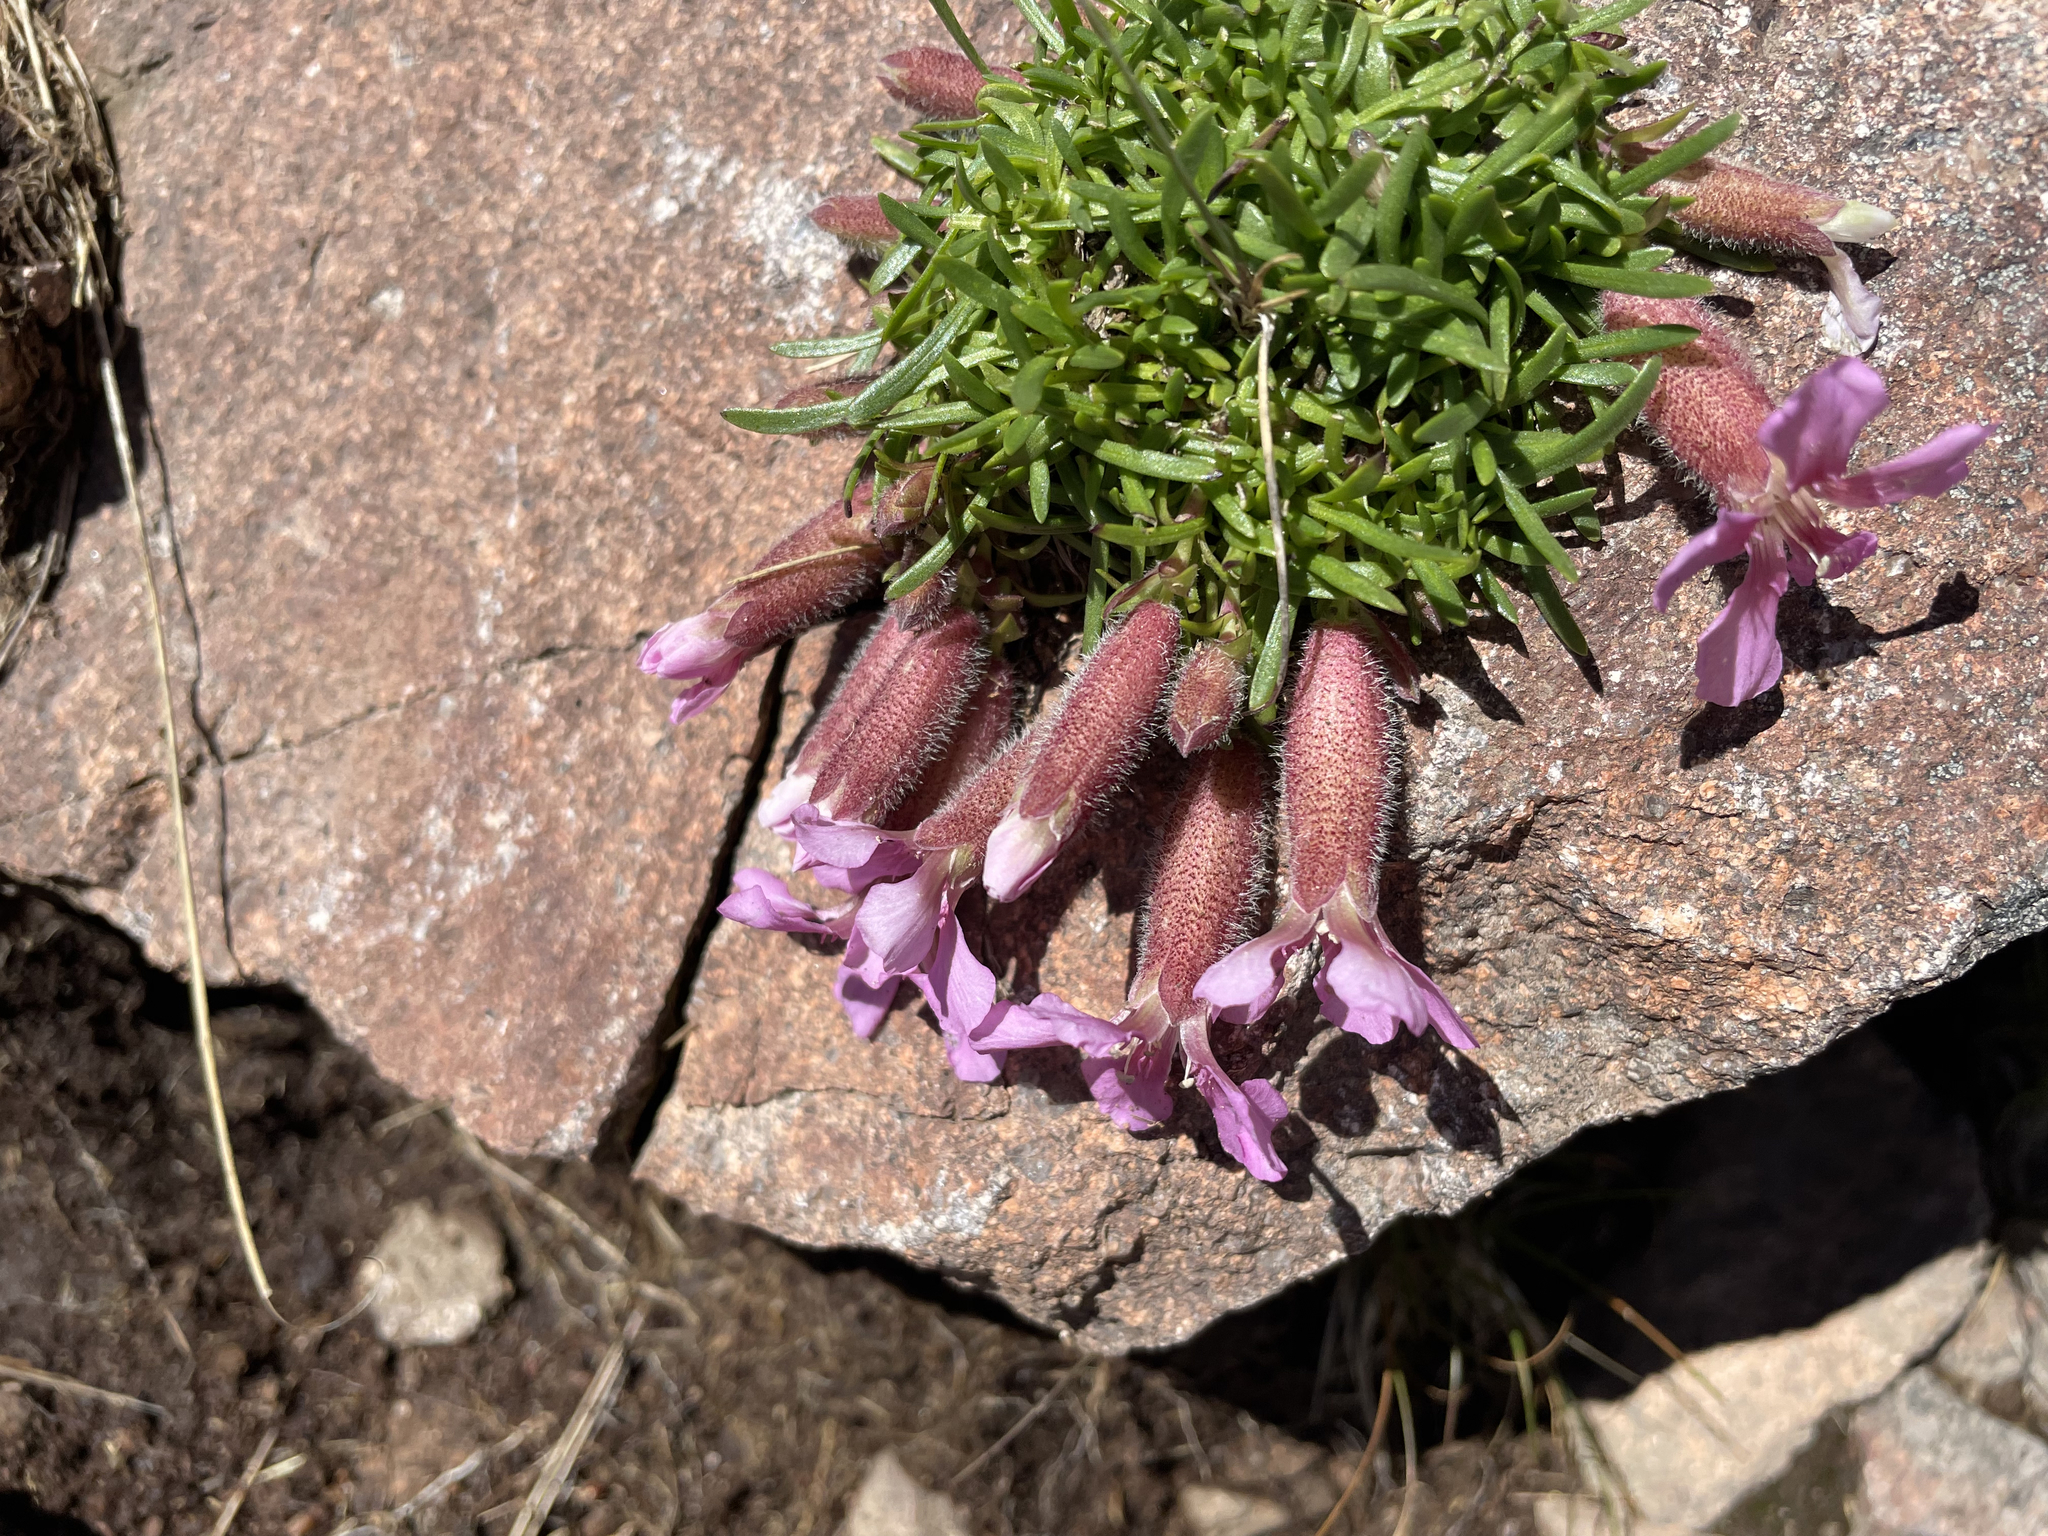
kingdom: Plantae
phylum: Tracheophyta
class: Magnoliopsida
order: Caryophyllales
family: Caryophyllaceae
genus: Saponaria
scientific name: Saponaria pumila
